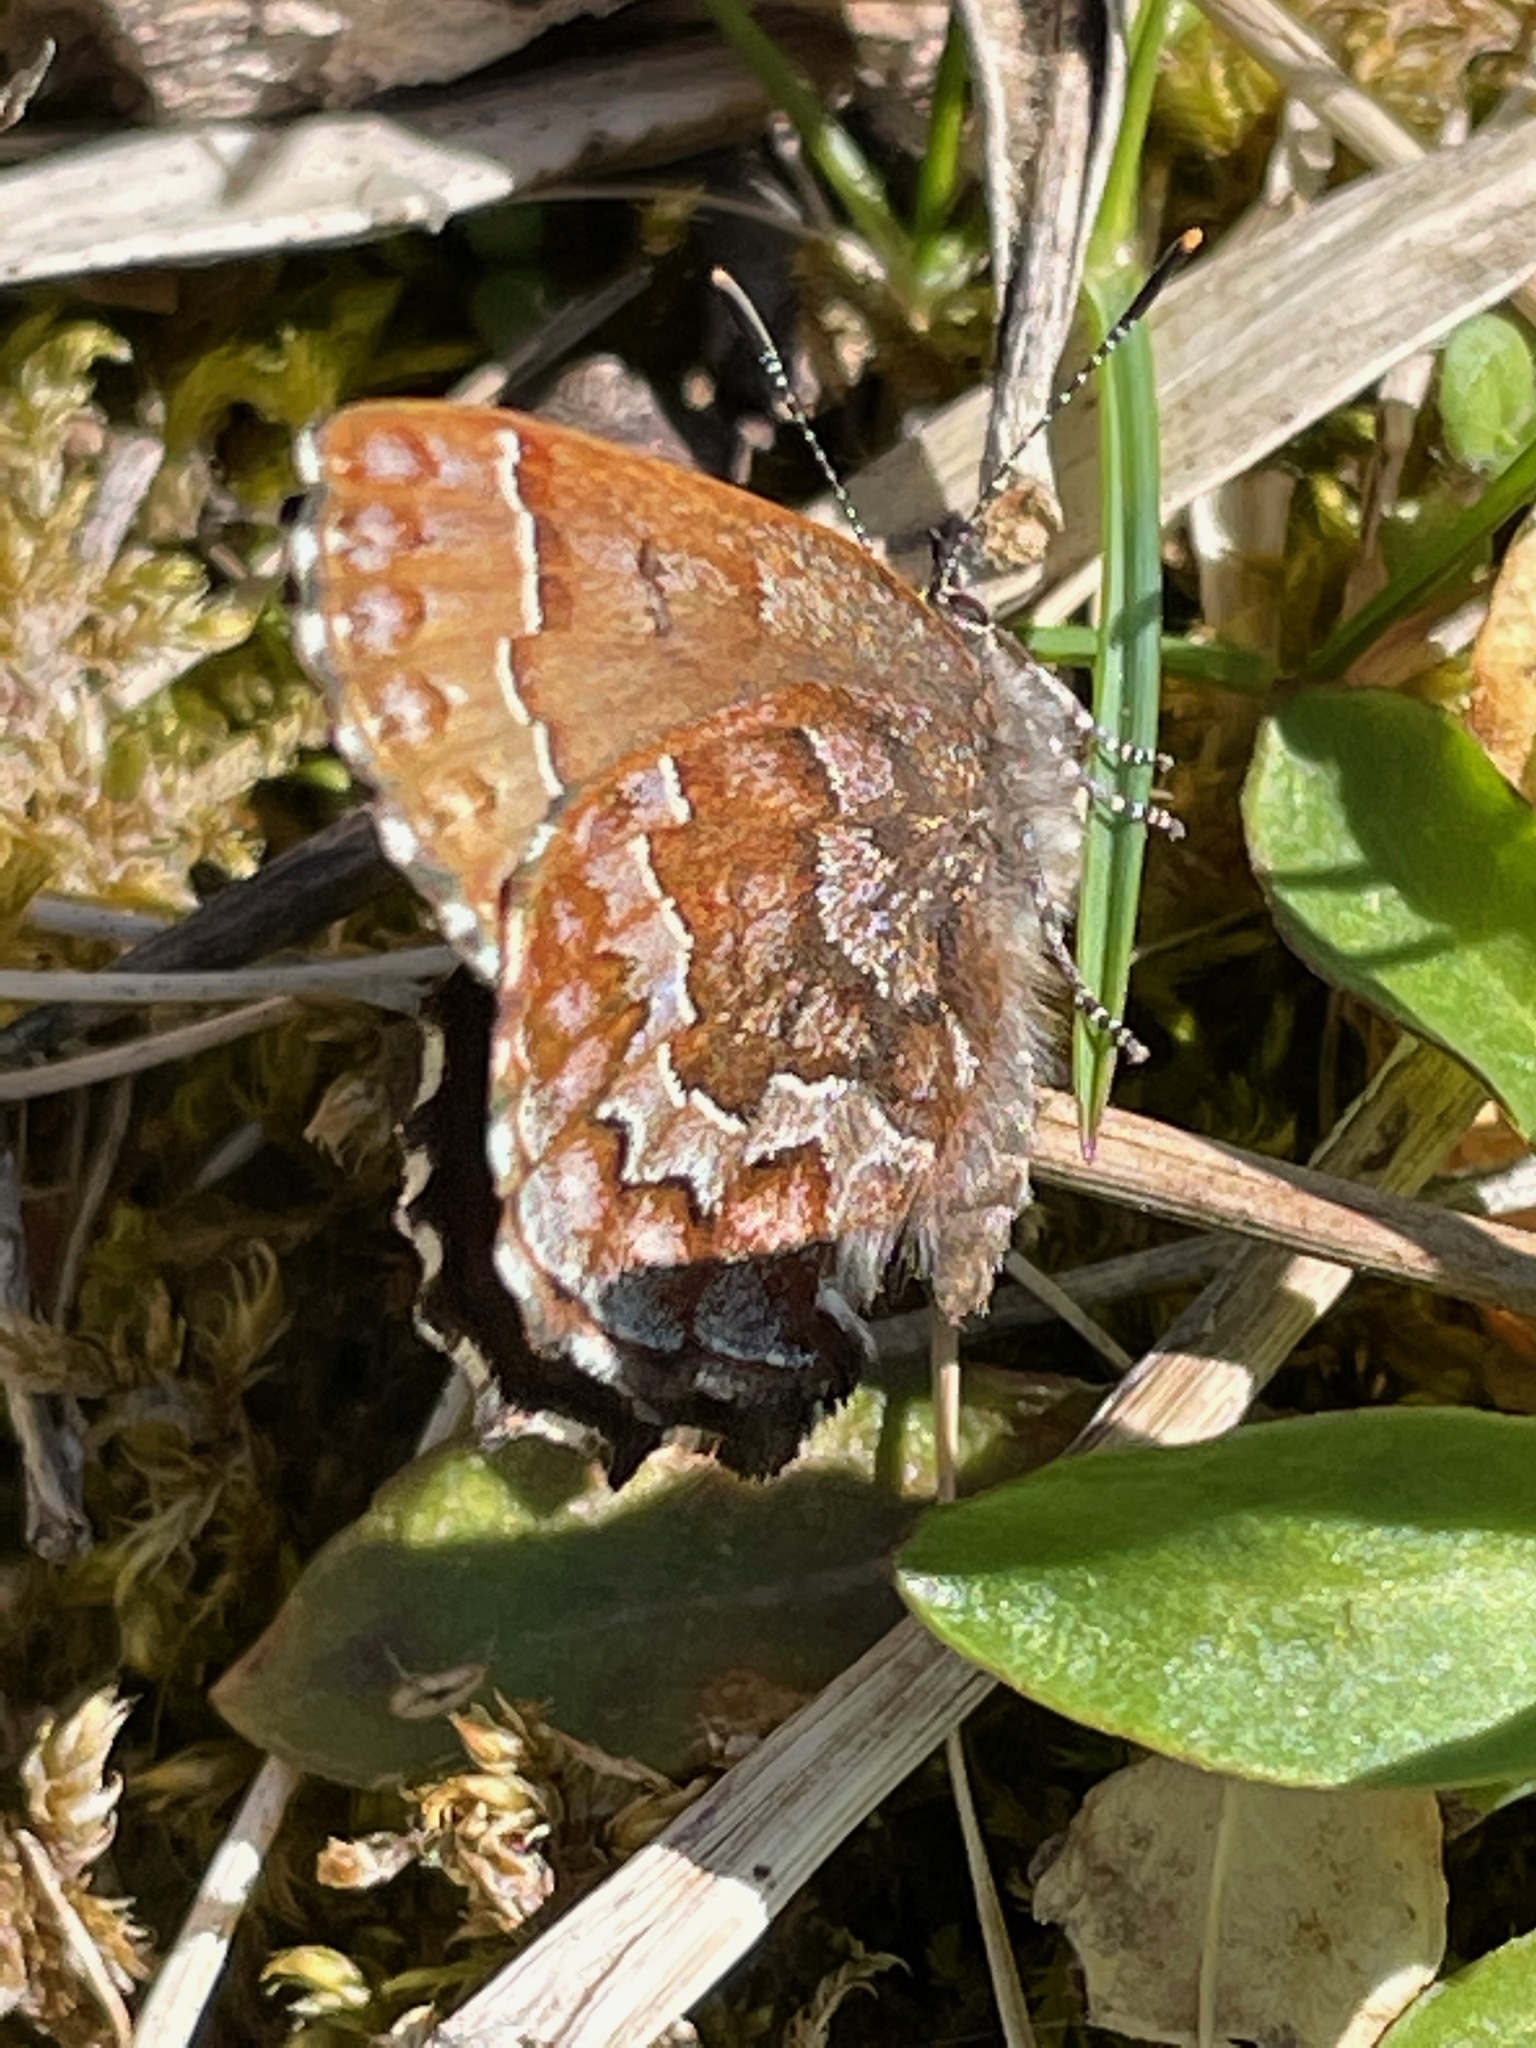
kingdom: Animalia
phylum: Arthropoda
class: Insecta
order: Lepidoptera
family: Lycaenidae
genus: Incisalia
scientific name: Incisalia niphon
